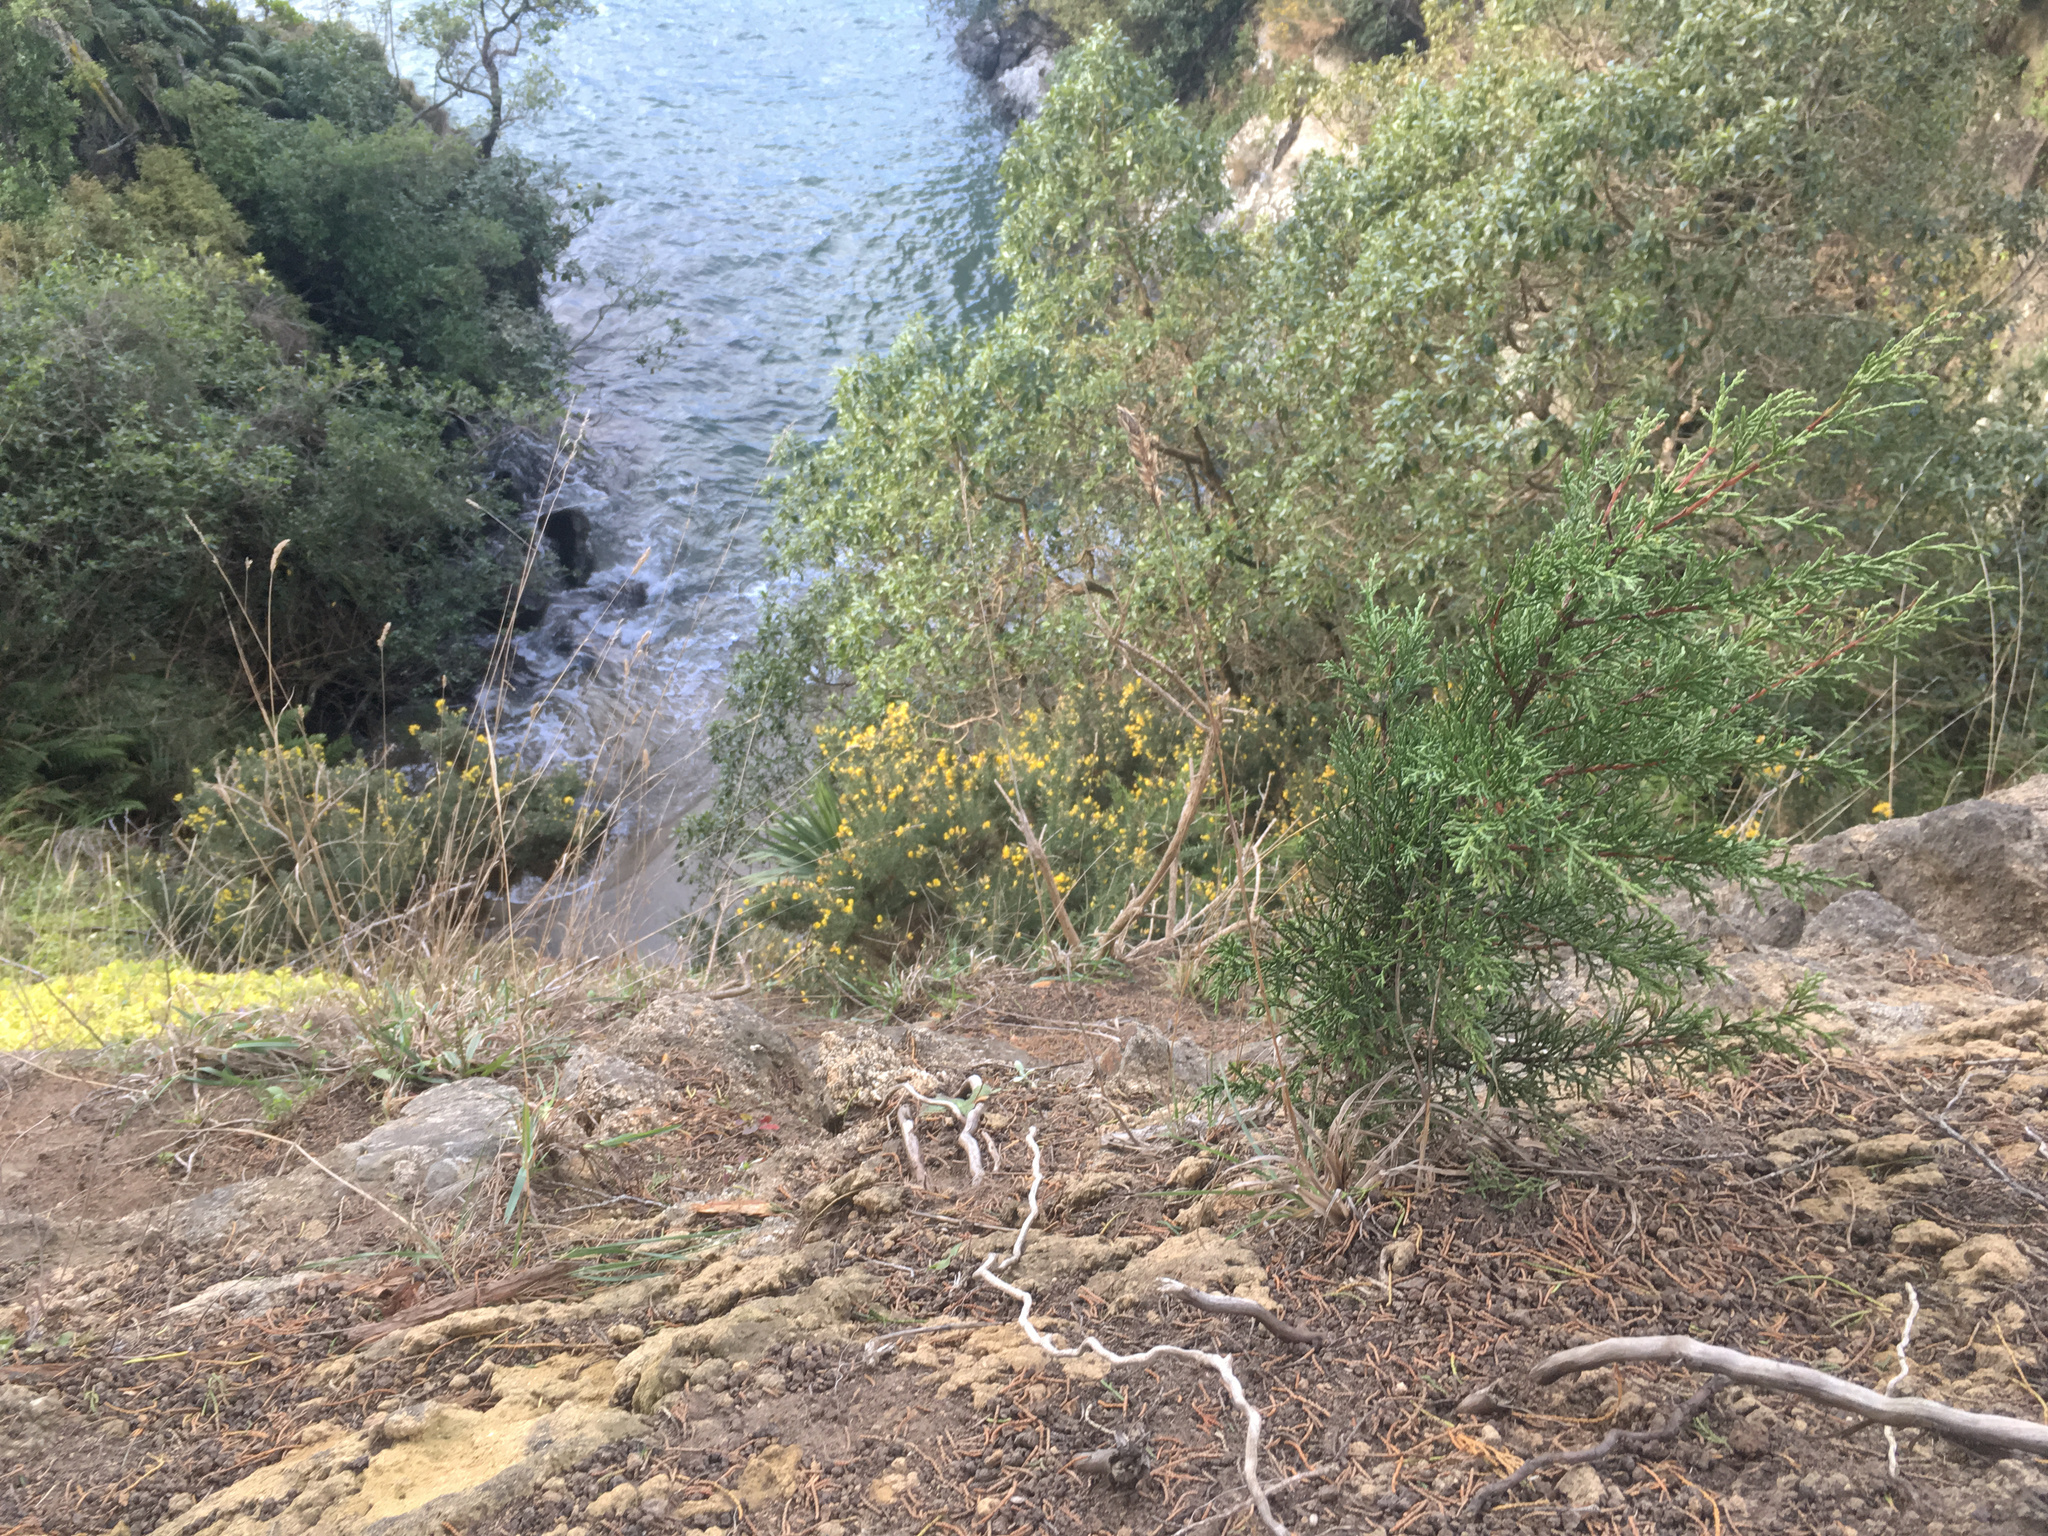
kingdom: Plantae
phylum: Tracheophyta
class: Pinopsida
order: Pinales
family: Cupressaceae
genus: Cupressus
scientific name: Cupressus macrocarpa
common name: Monterey cypress
